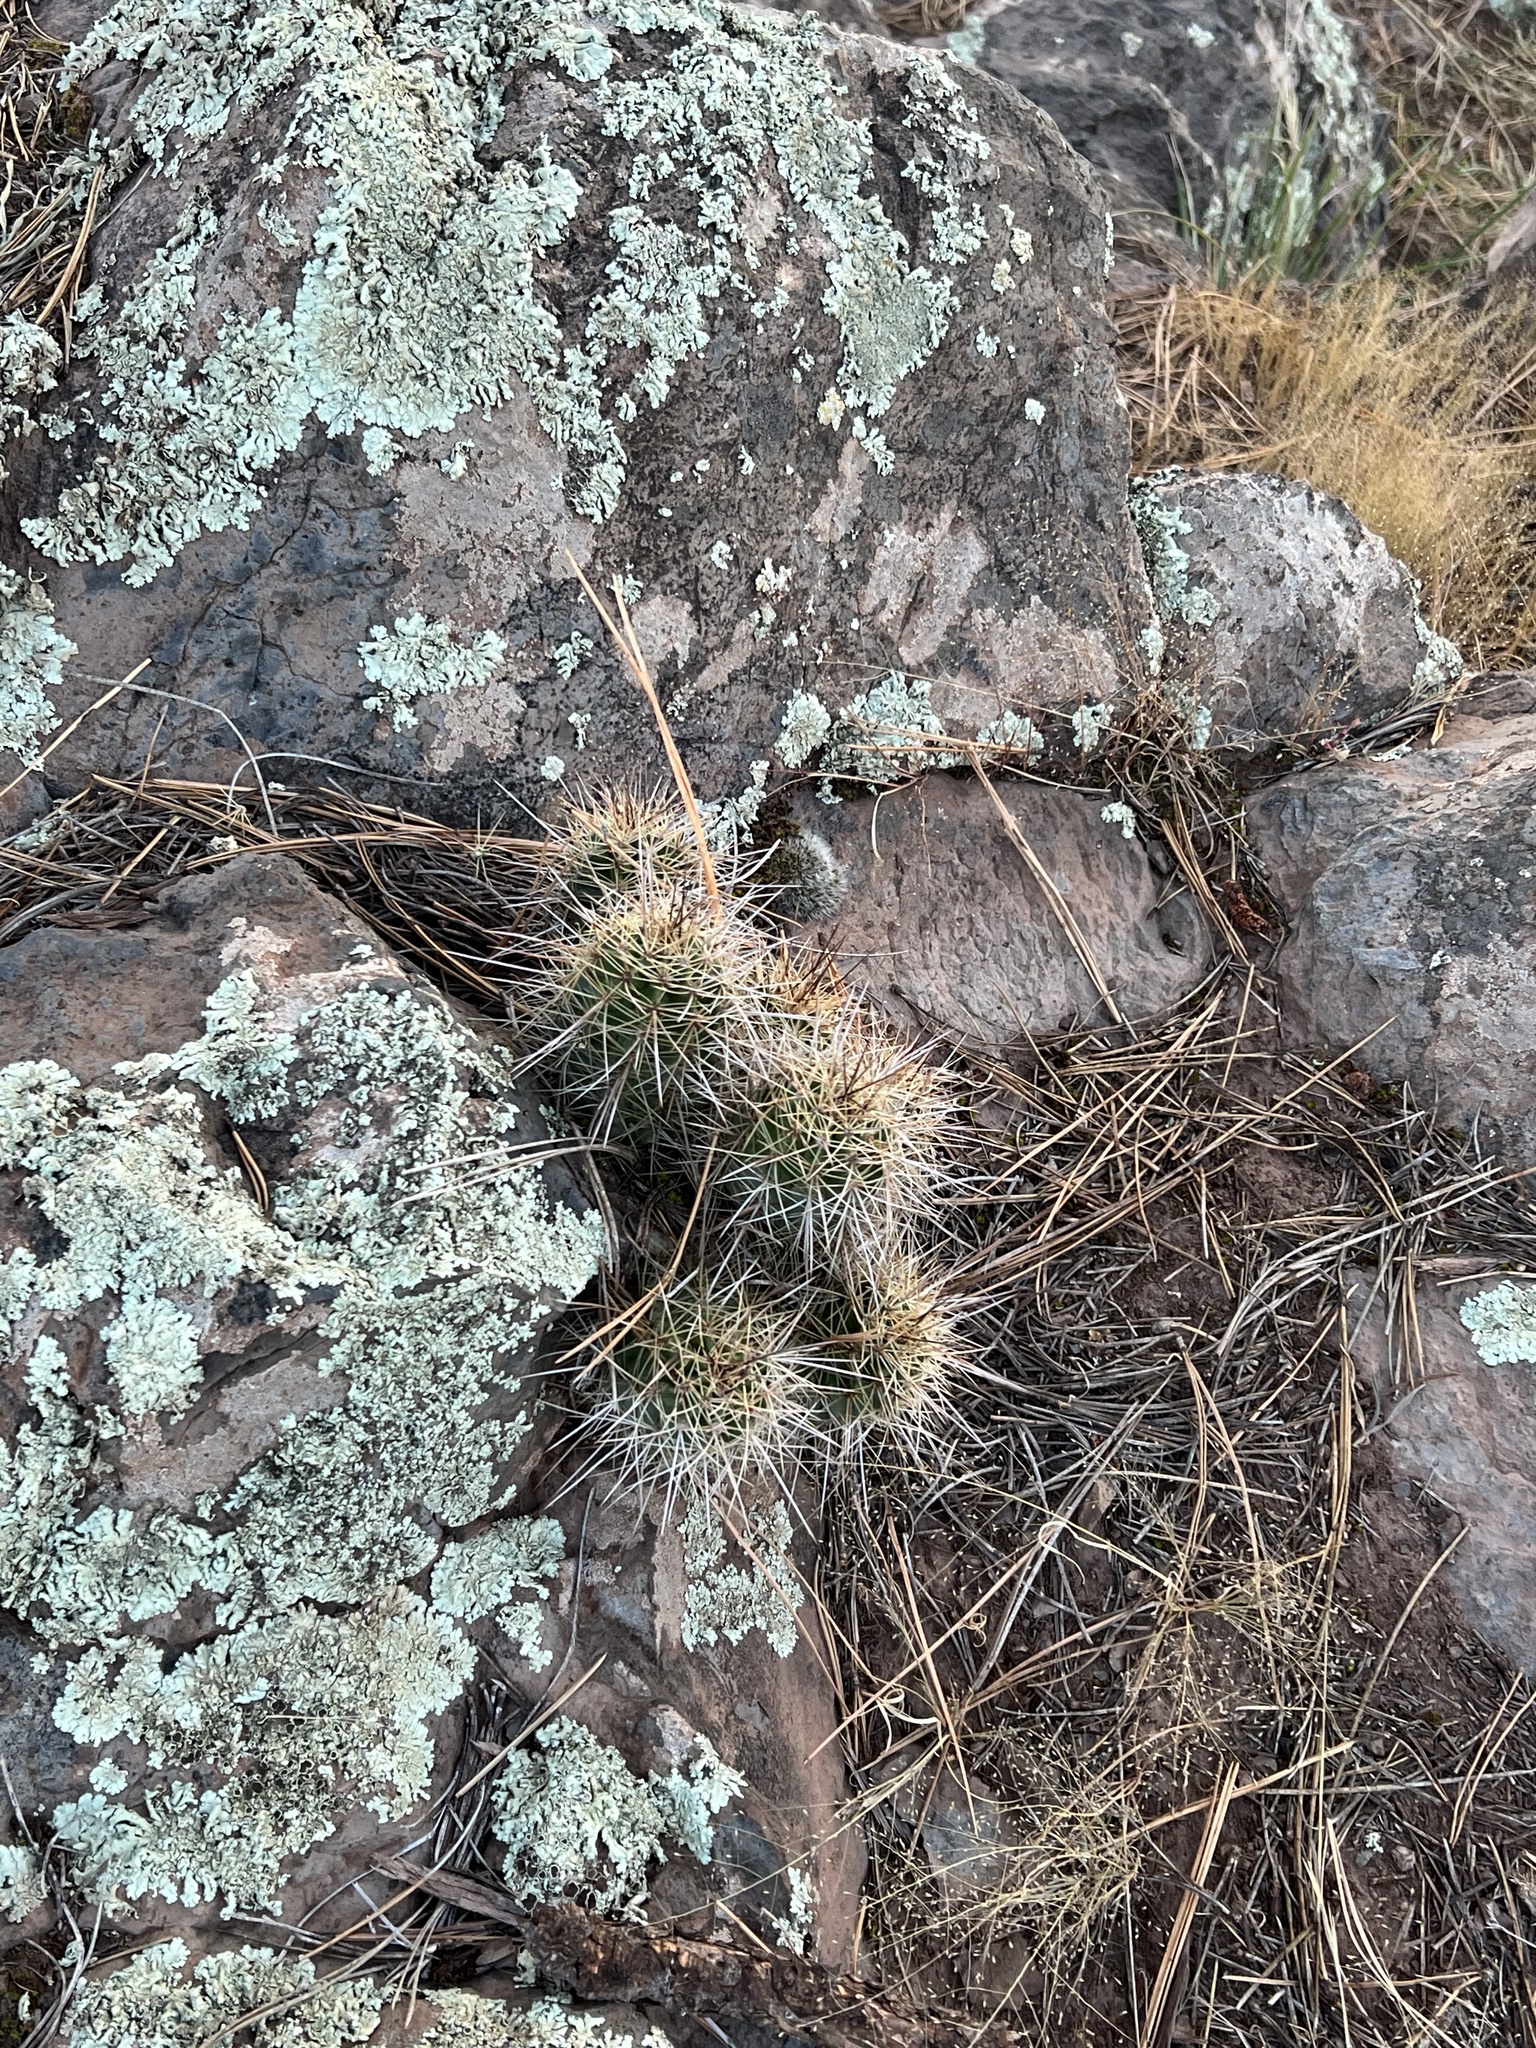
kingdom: Plantae
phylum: Tracheophyta
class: Magnoliopsida
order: Caryophyllales
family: Cactaceae
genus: Echinocereus
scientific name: Echinocereus bakeri
